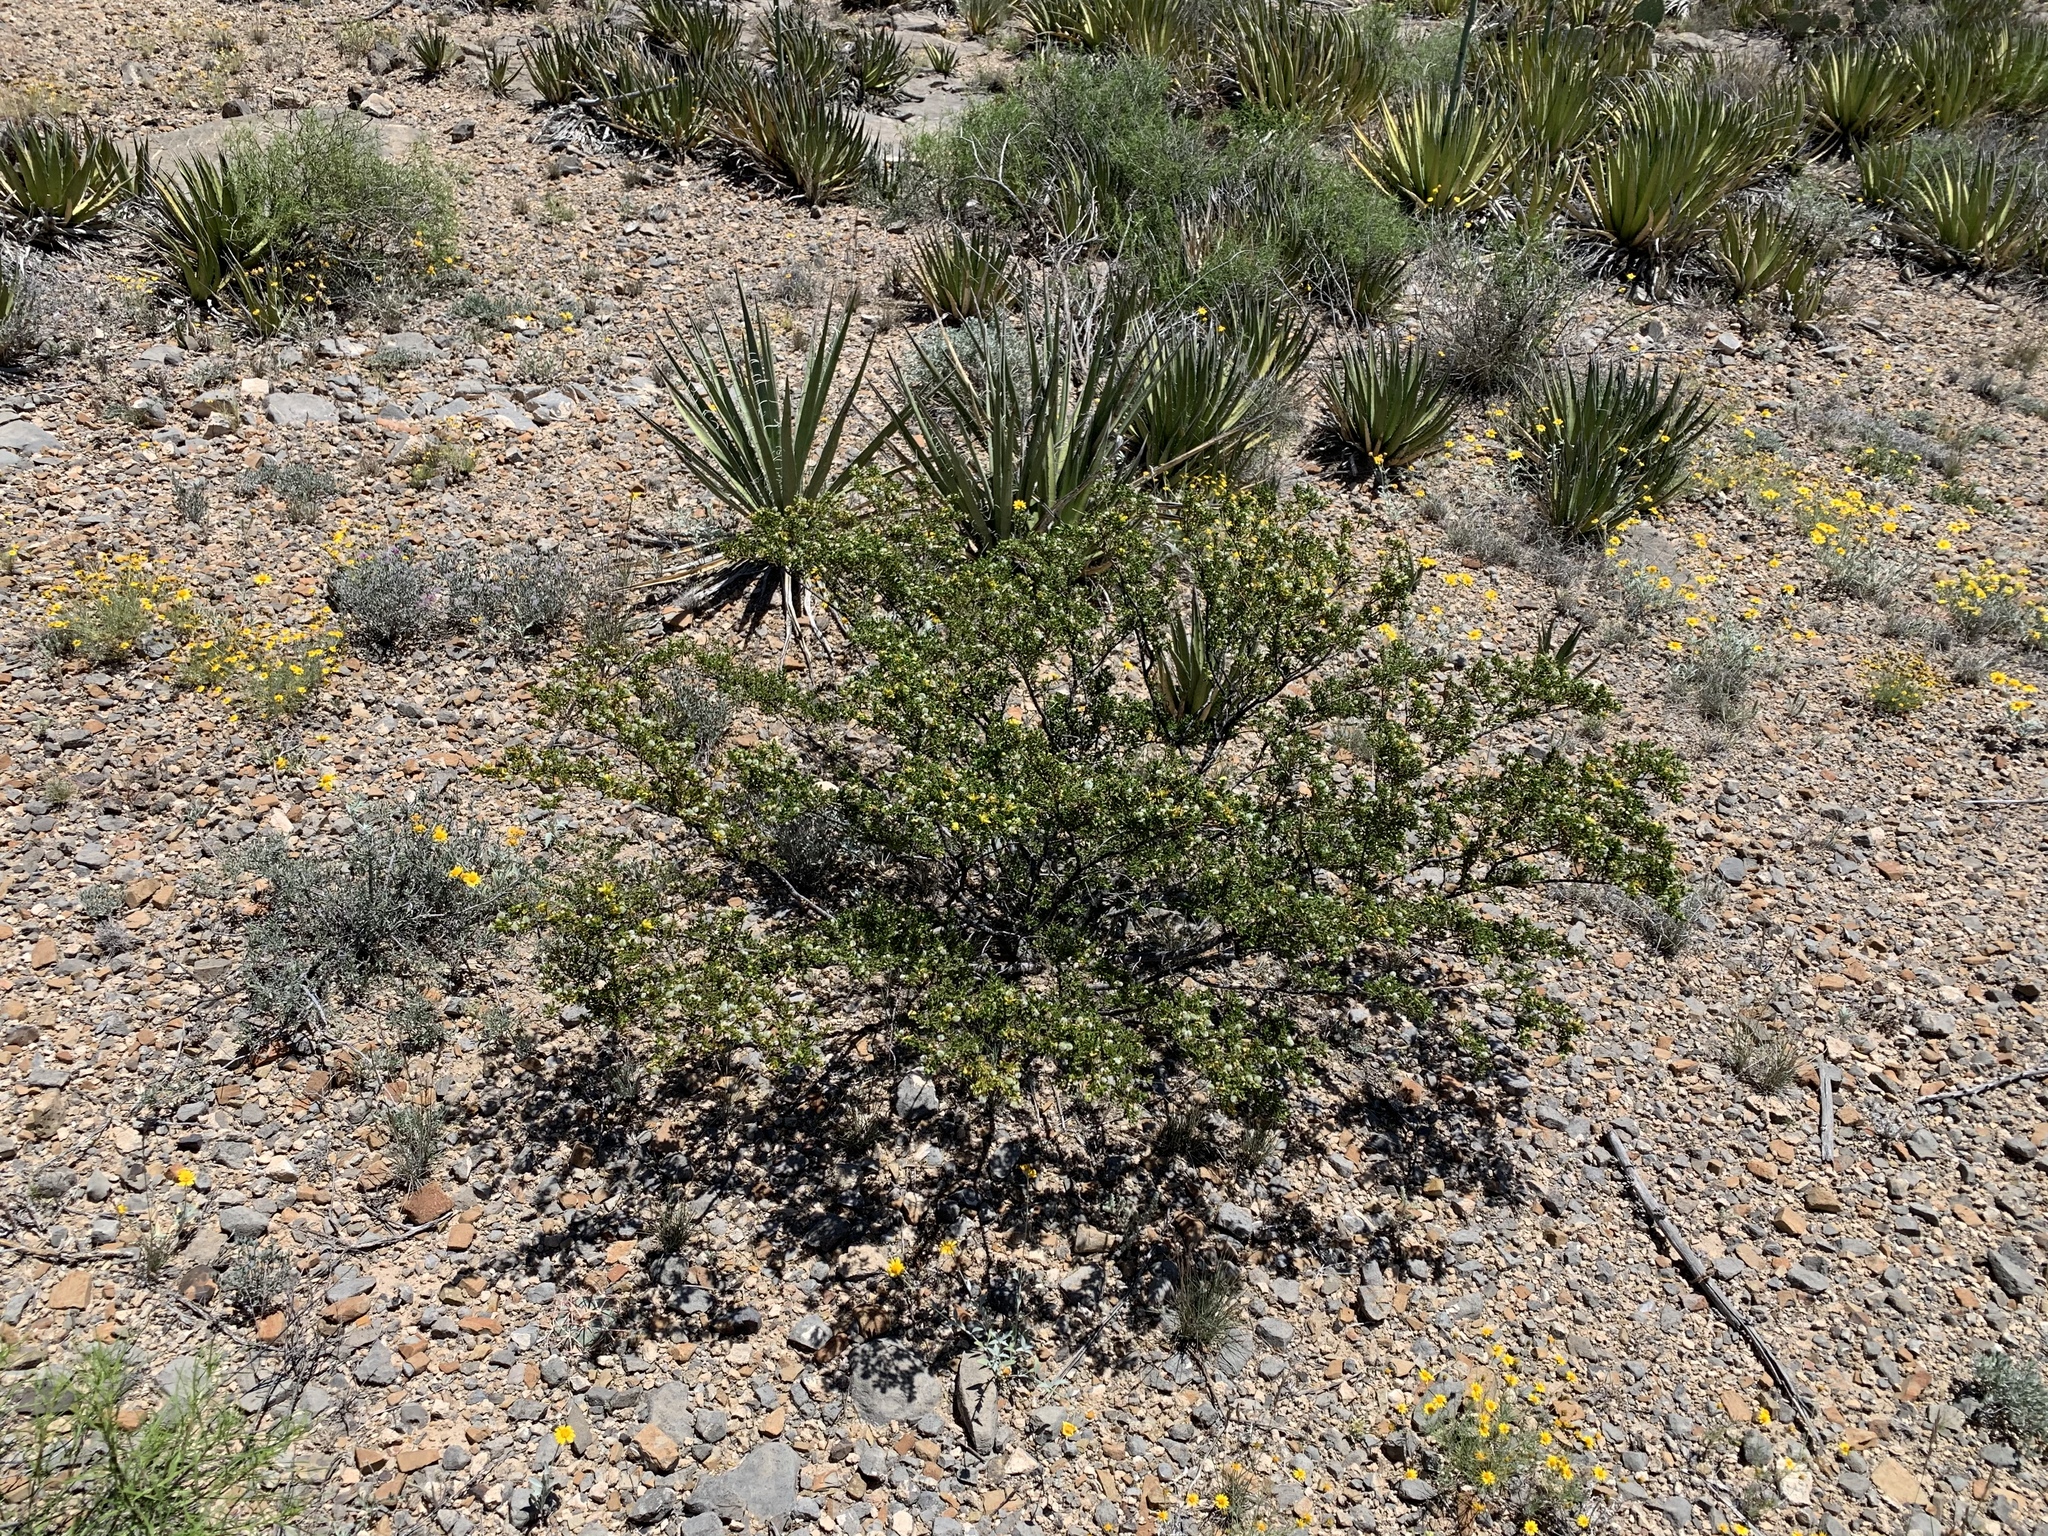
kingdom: Plantae
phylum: Tracheophyta
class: Magnoliopsida
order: Zygophyllales
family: Zygophyllaceae
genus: Larrea
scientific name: Larrea tridentata
